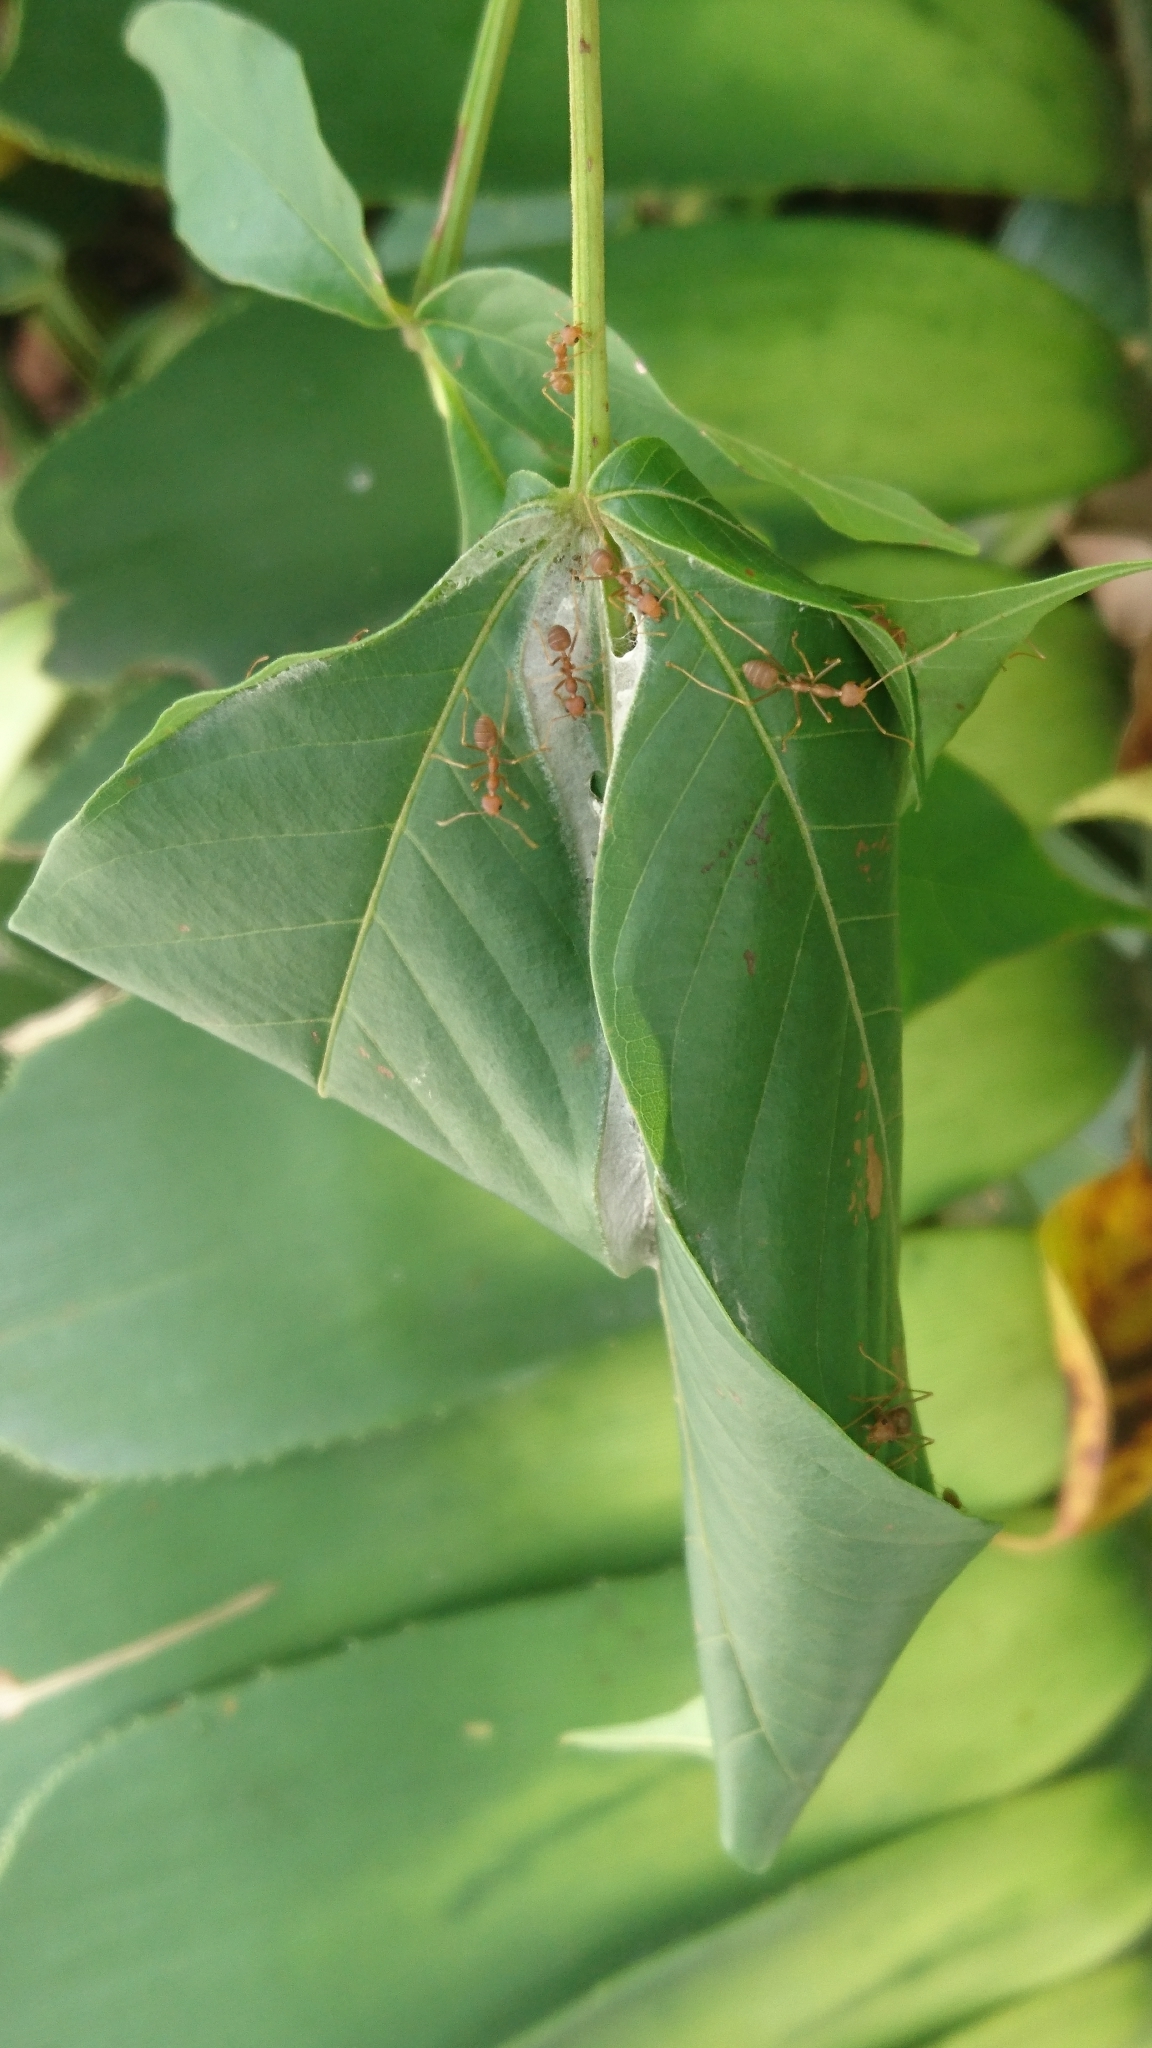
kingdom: Animalia
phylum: Arthropoda
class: Insecta
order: Hymenoptera
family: Formicidae
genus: Oecophylla
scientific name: Oecophylla smaragdina
